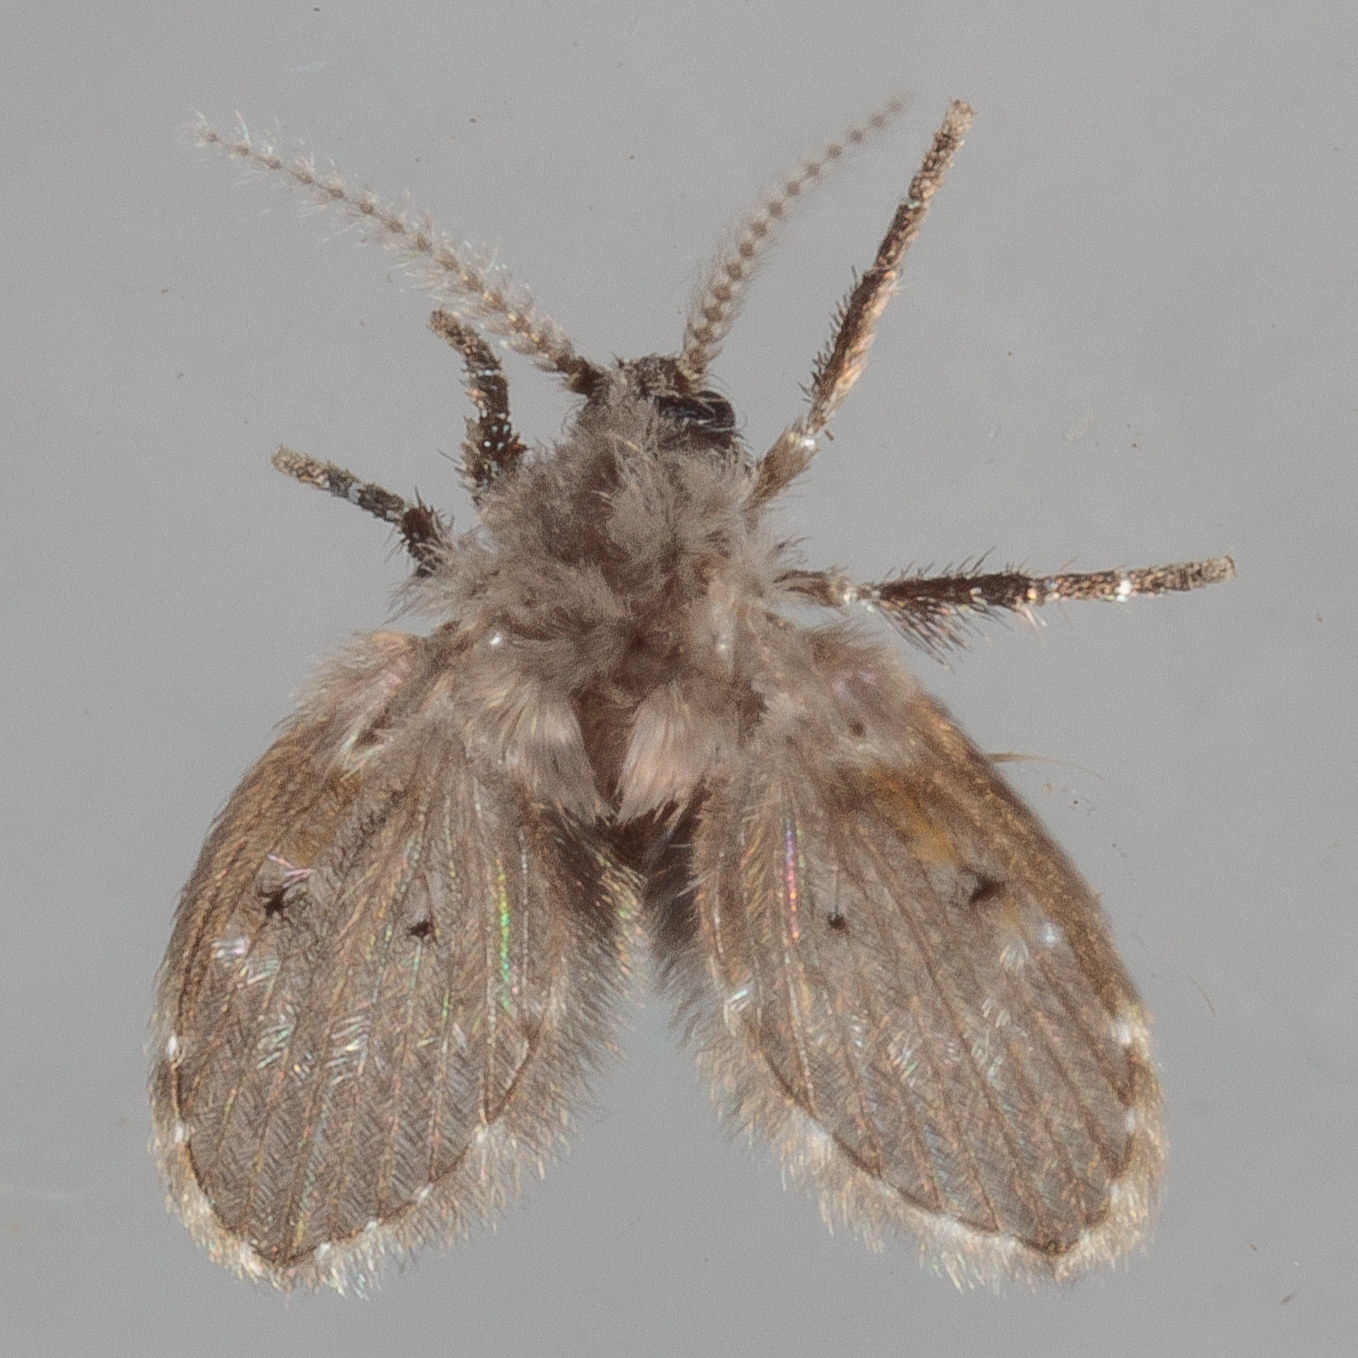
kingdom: Animalia
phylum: Arthropoda
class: Insecta
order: Diptera
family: Psychodidae
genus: Clogmia
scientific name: Clogmia albipunctatus
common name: White-spotted moth fly
